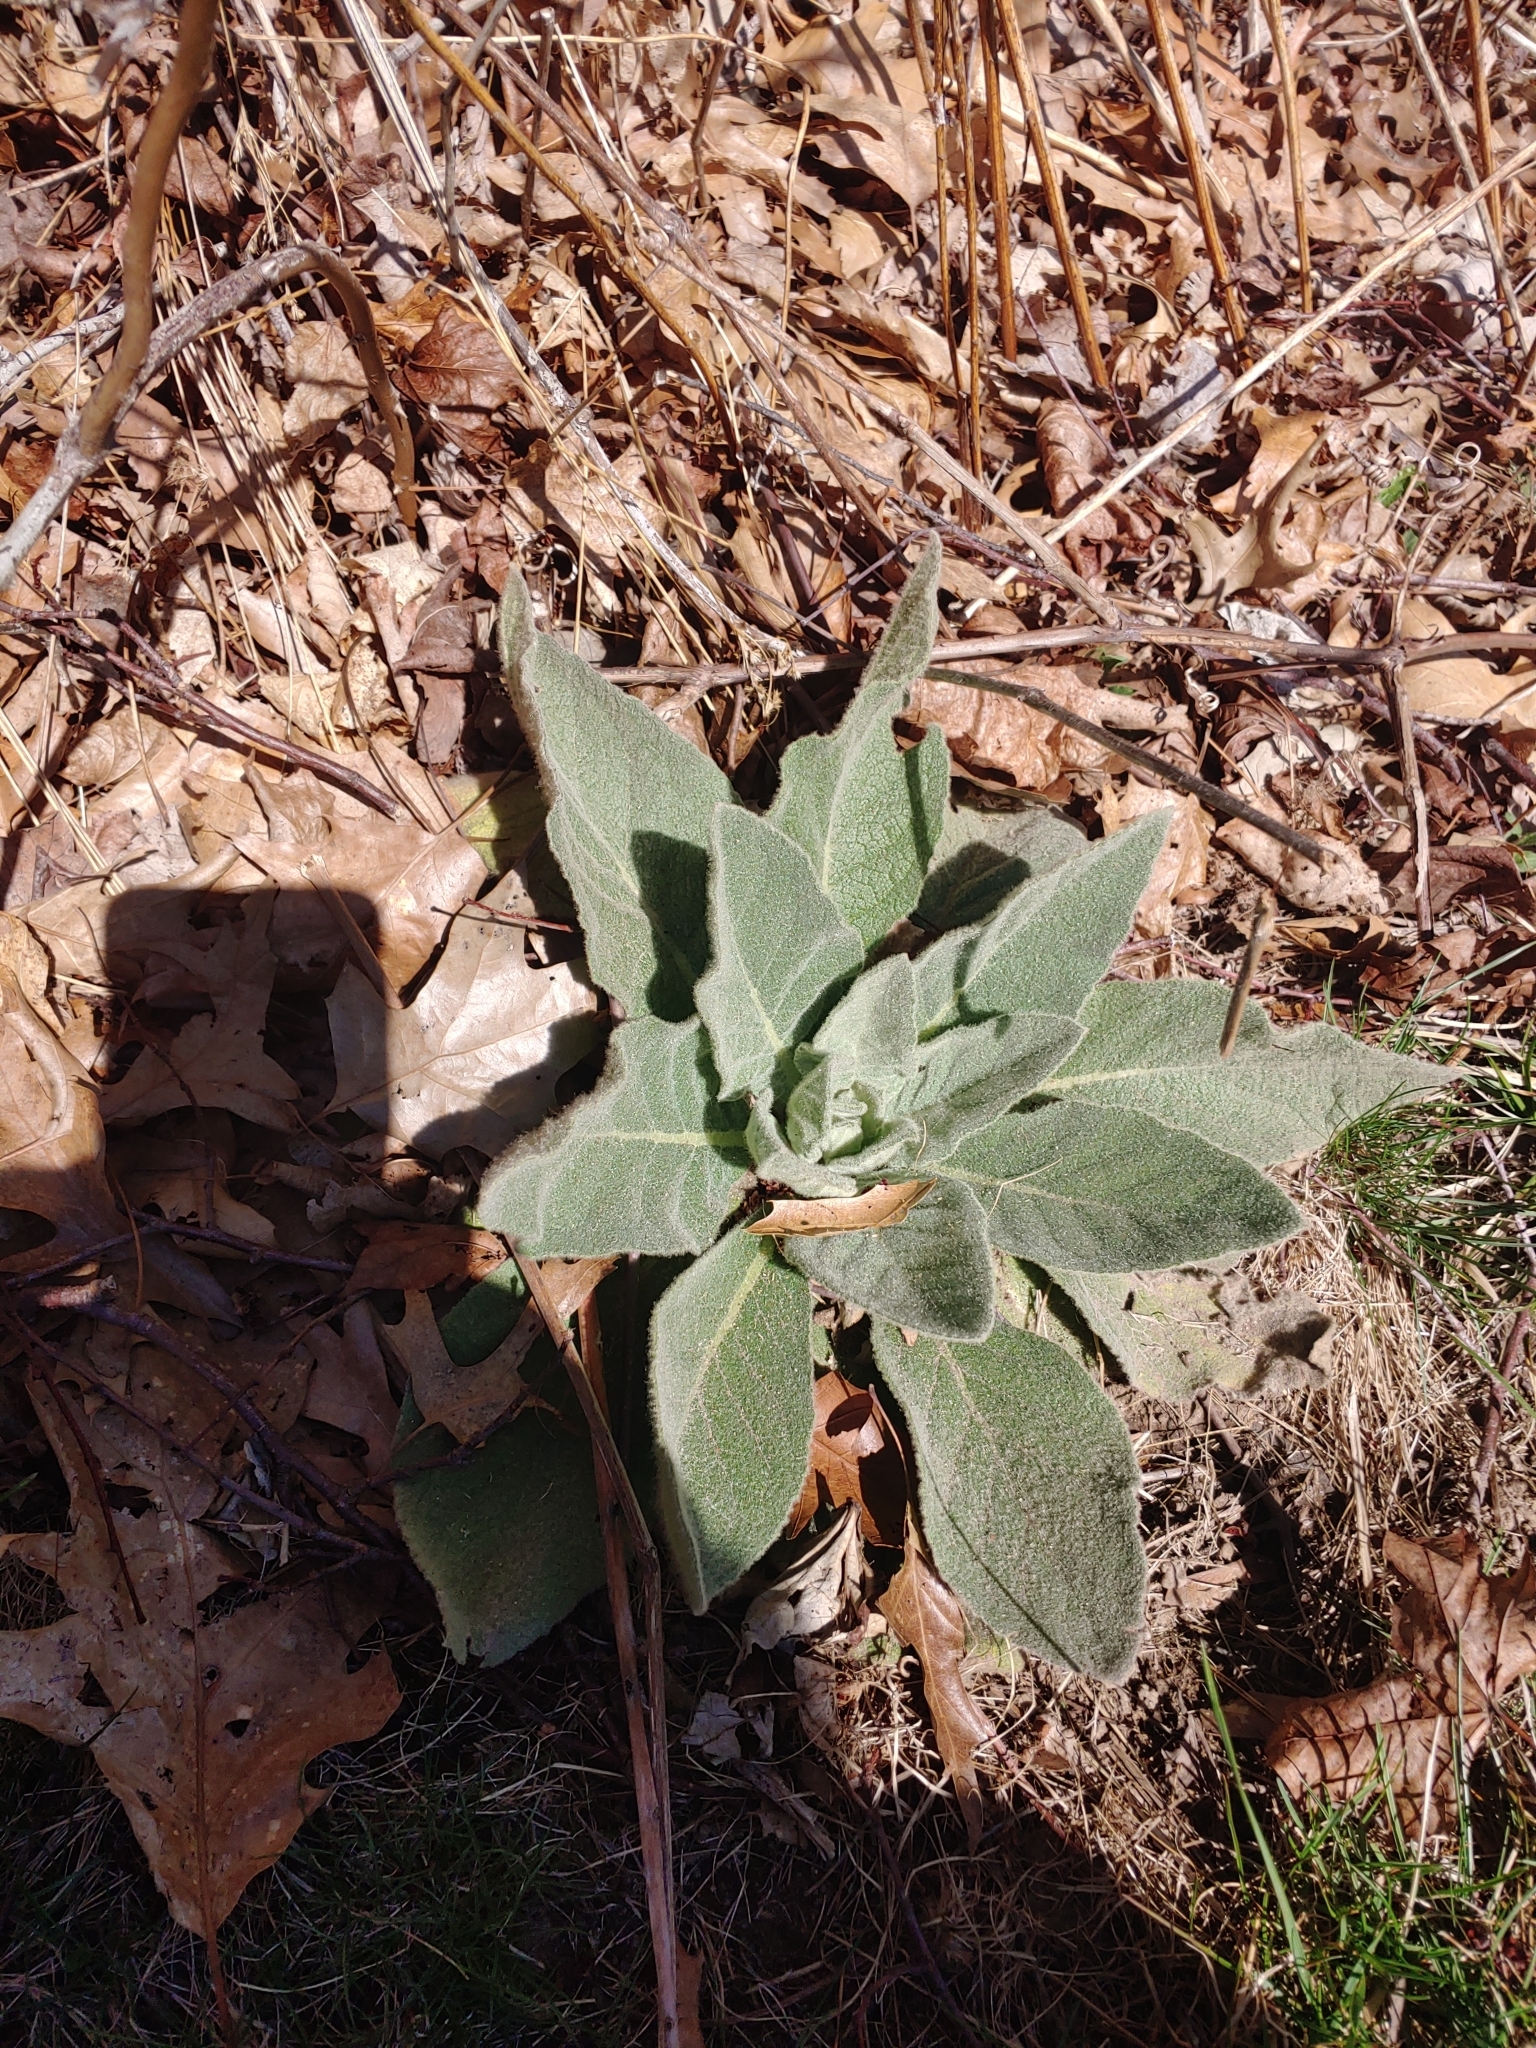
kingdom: Plantae
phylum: Tracheophyta
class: Magnoliopsida
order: Lamiales
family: Scrophulariaceae
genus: Verbascum
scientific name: Verbascum thapsus
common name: Common mullein
